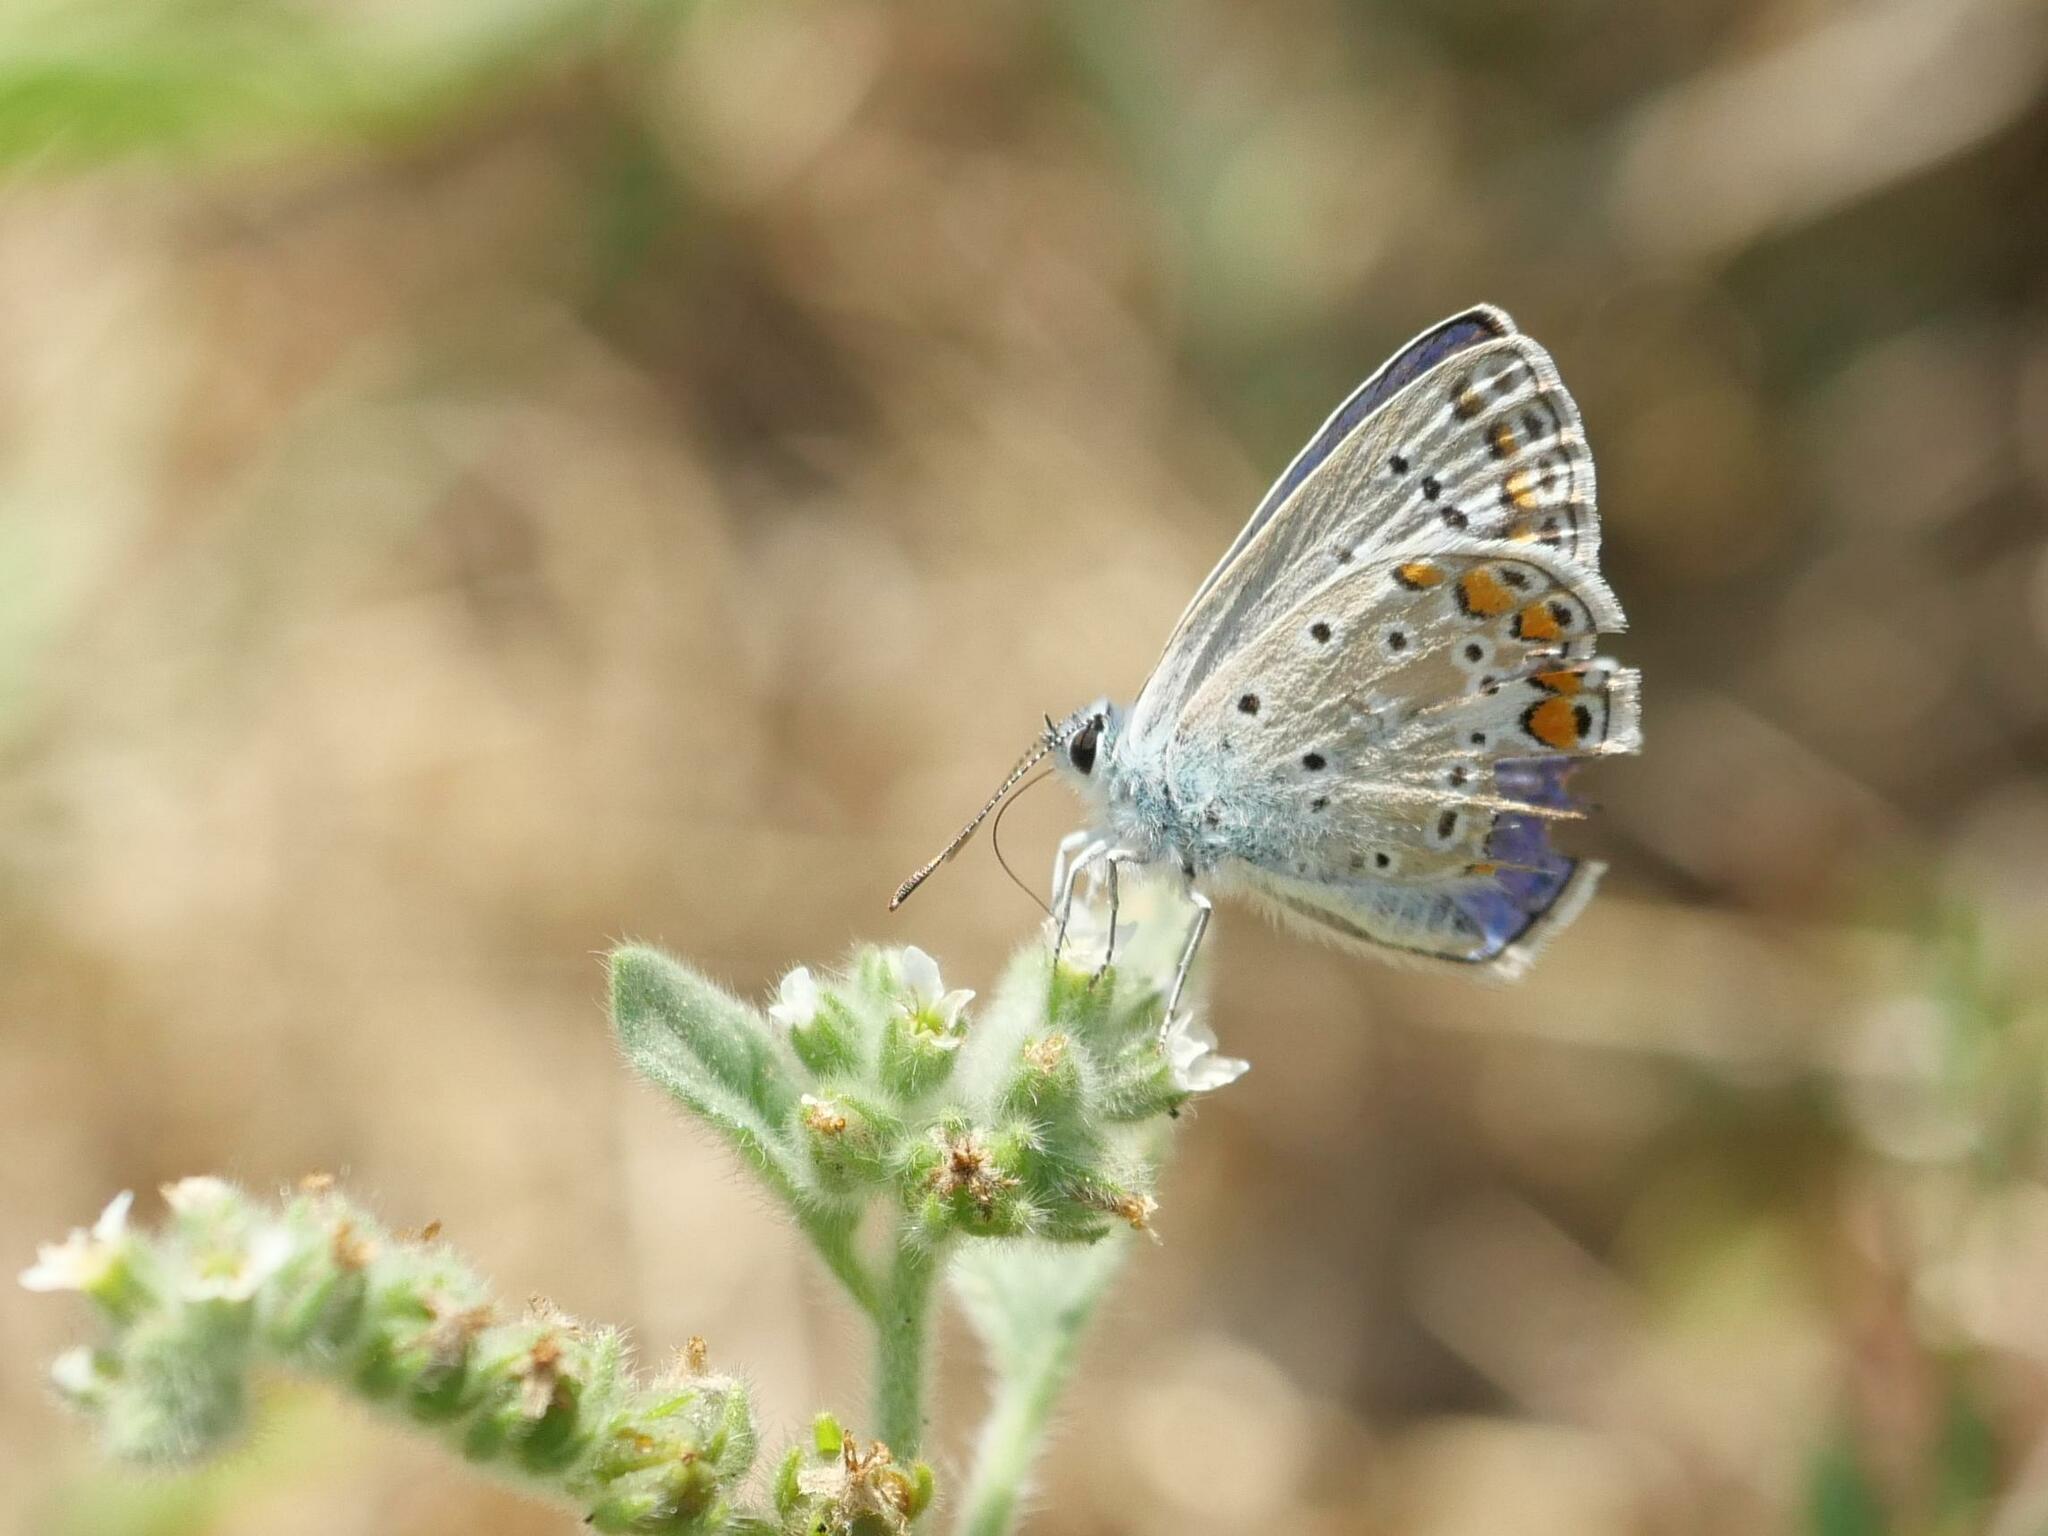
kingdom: Animalia
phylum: Arthropoda
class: Insecta
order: Lepidoptera
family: Lycaenidae
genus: Polyommatus
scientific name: Polyommatus icarus
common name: Common blue
